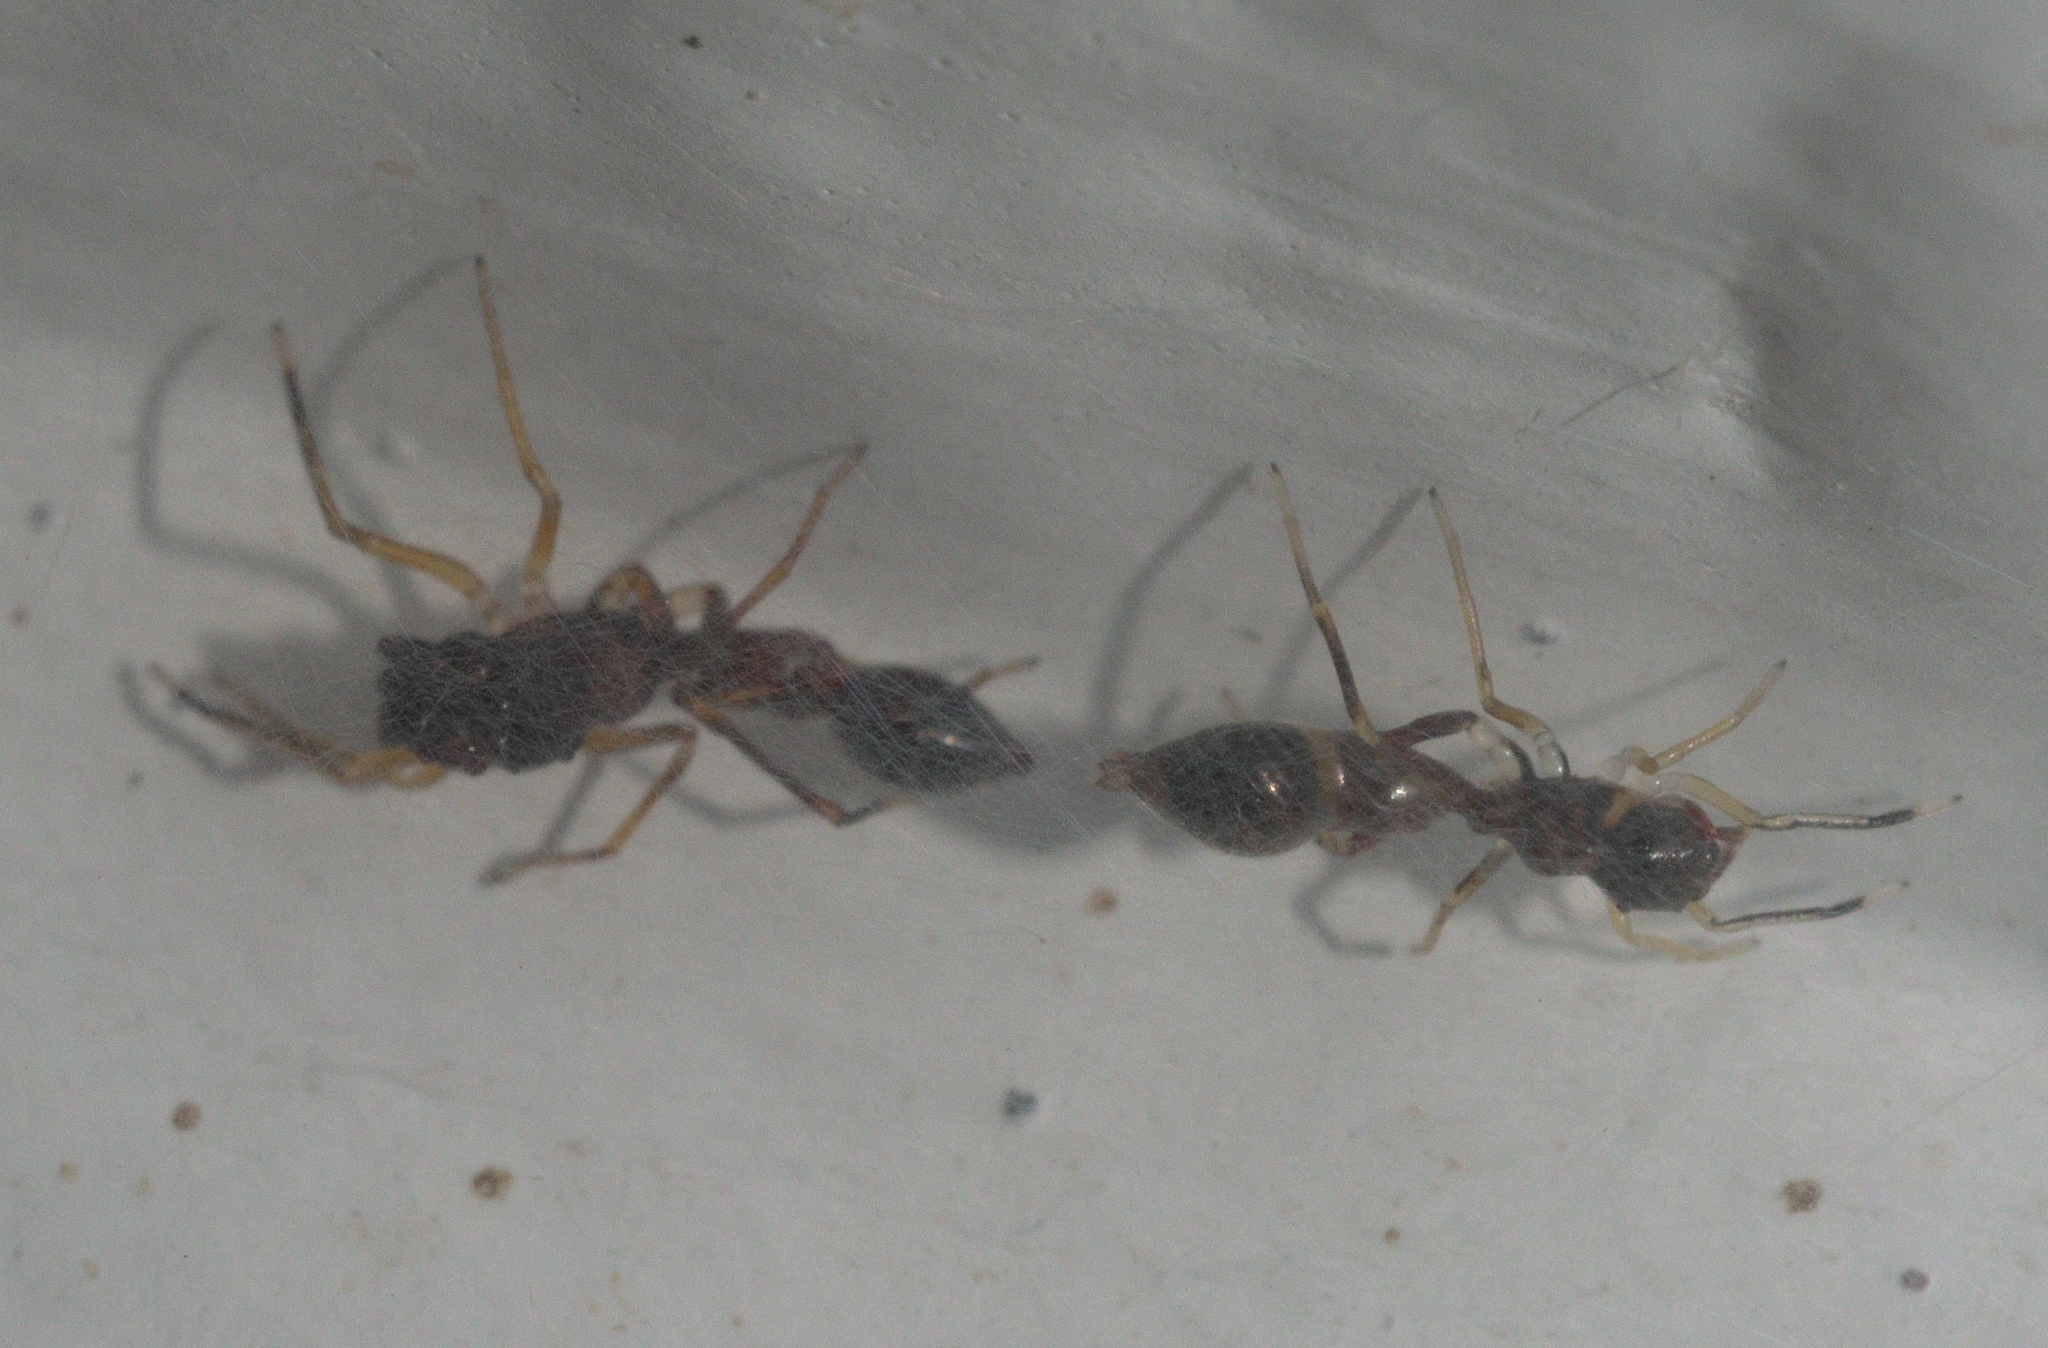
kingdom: Animalia
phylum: Arthropoda
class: Arachnida
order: Araneae
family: Salticidae
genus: Synemosyna
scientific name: Synemosyna formica
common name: Slender ant-mimic jumping spider
